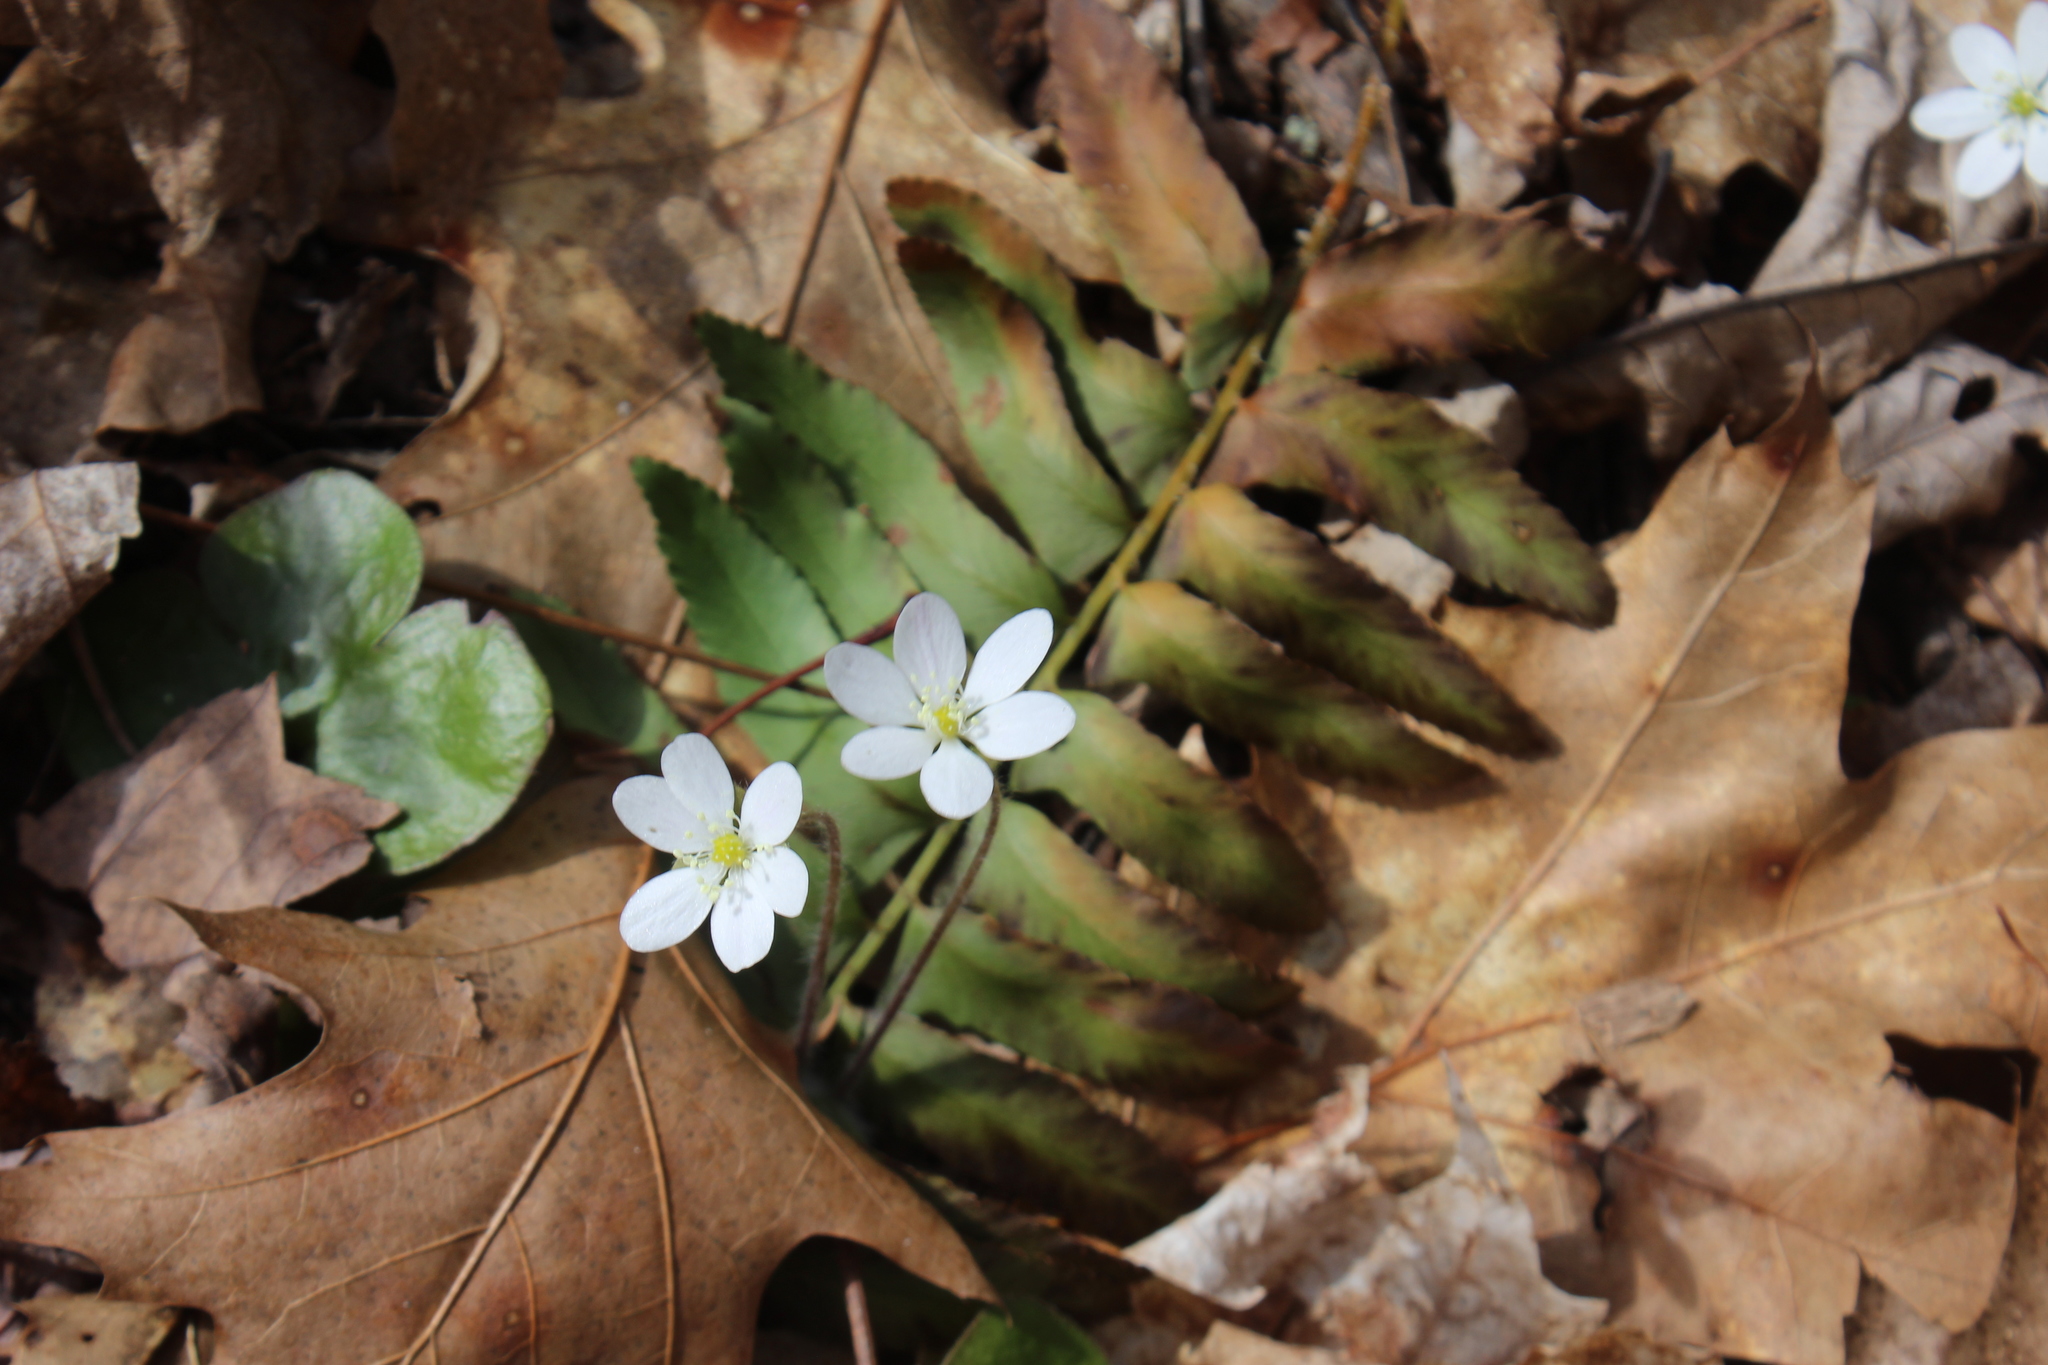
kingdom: Plantae
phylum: Tracheophyta
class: Magnoliopsida
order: Ranunculales
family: Ranunculaceae
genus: Hepatica
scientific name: Hepatica americana
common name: American hepatica
